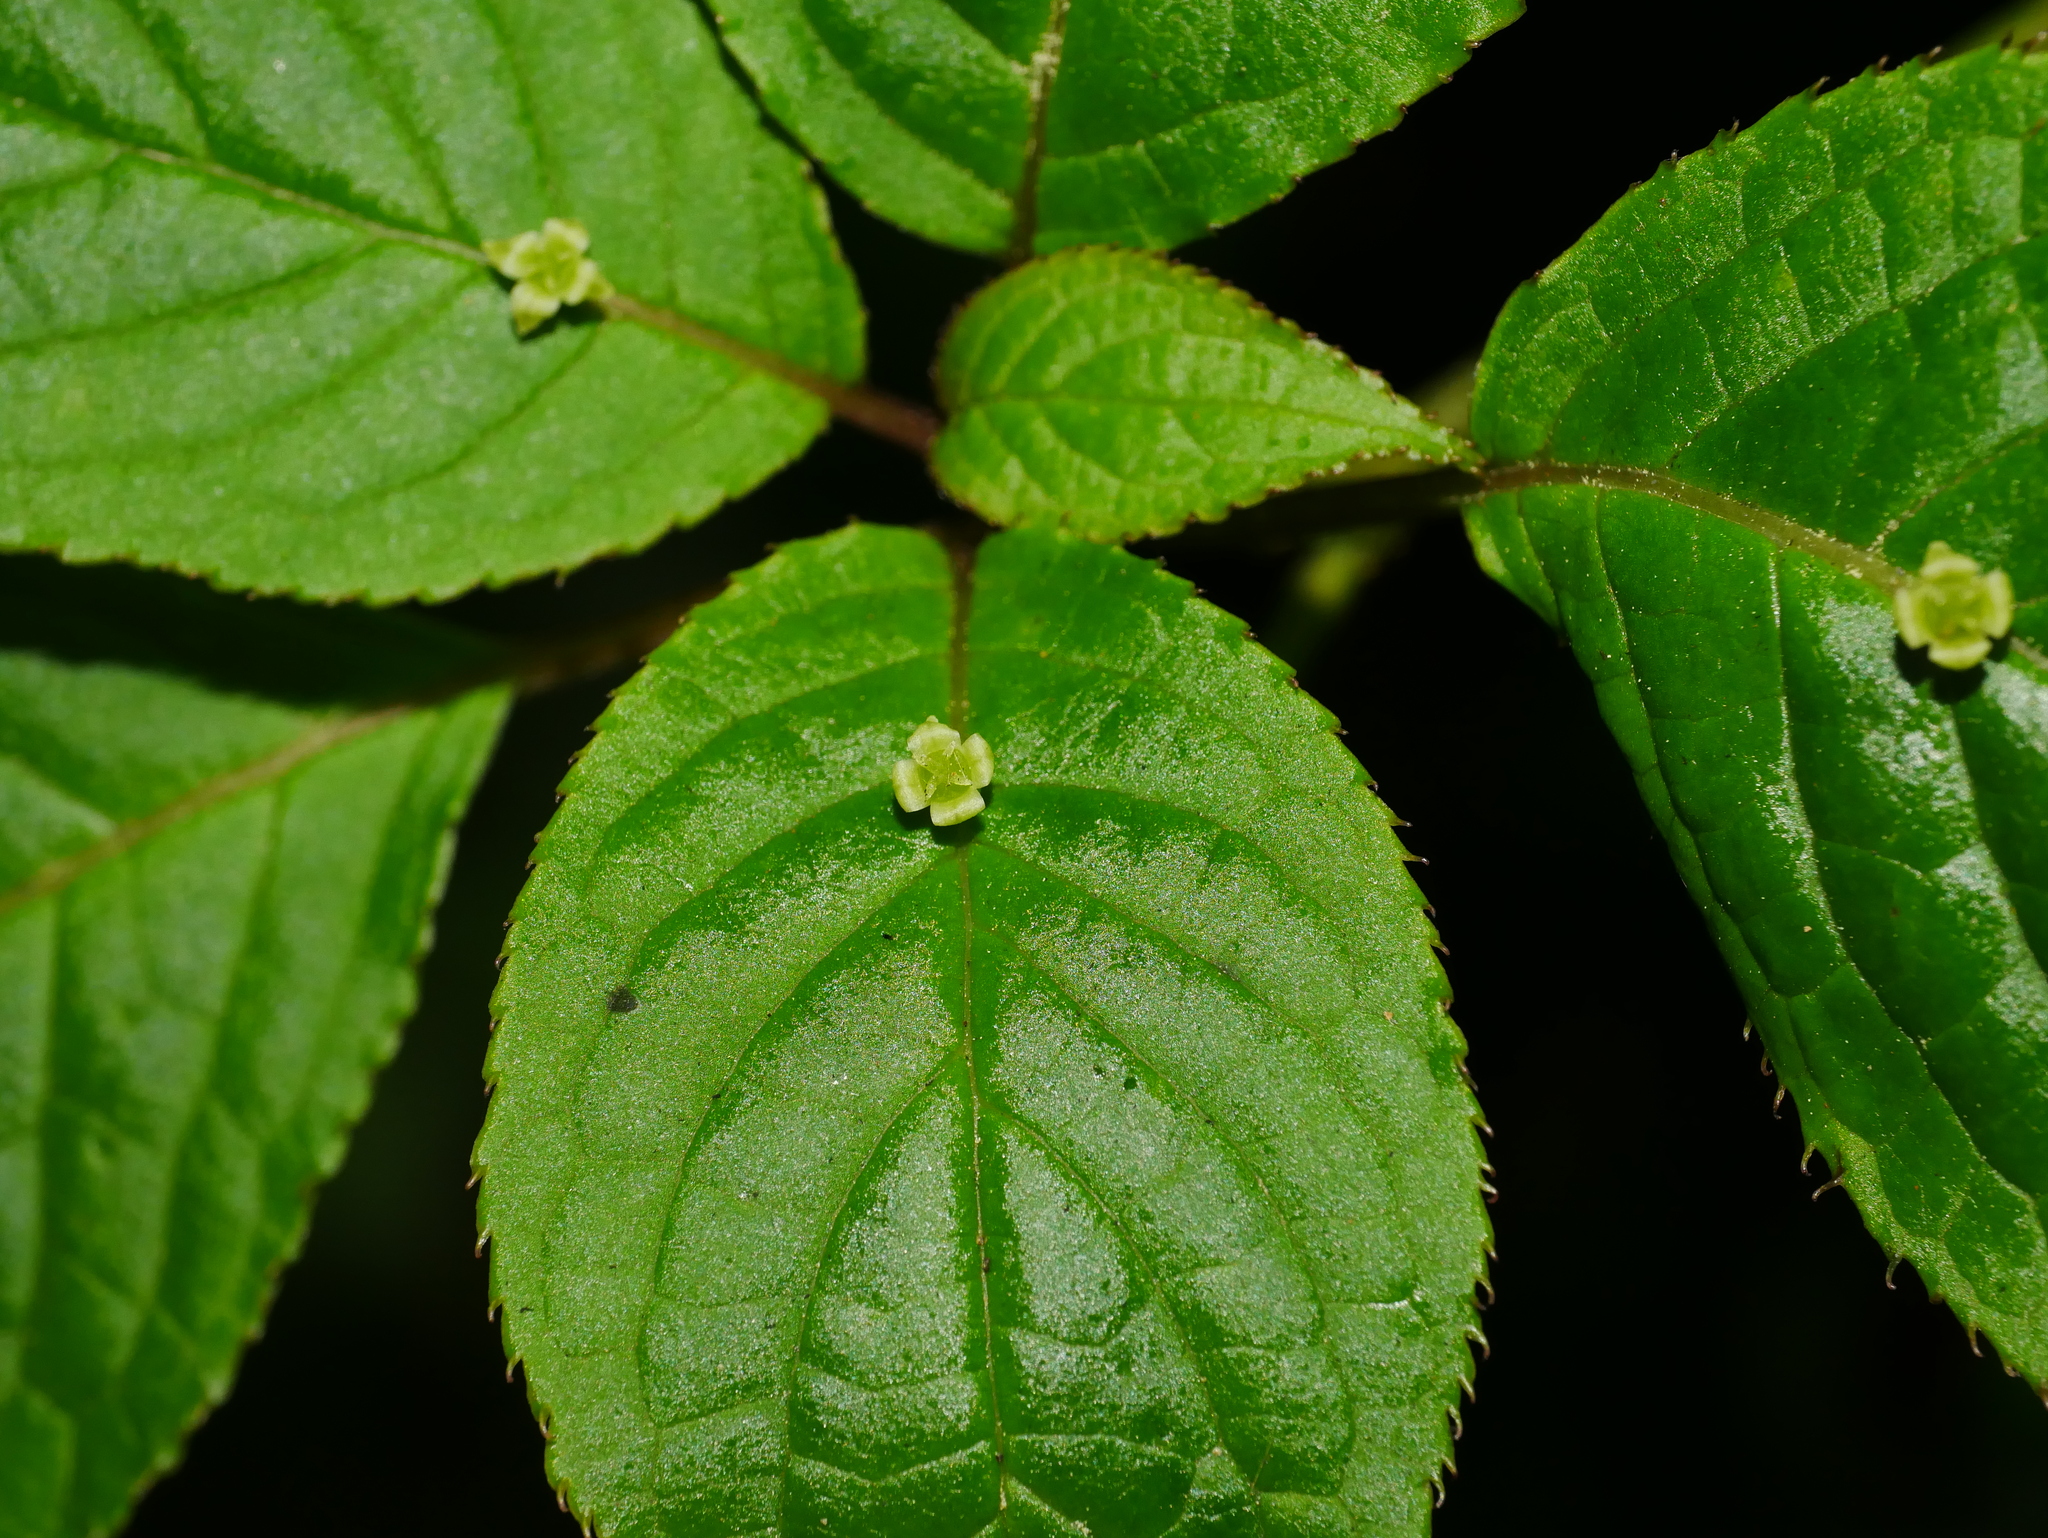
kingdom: Plantae
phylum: Tracheophyta
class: Magnoliopsida
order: Aquifoliales
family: Helwingiaceae
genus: Helwingia
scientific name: Helwingia japonica
